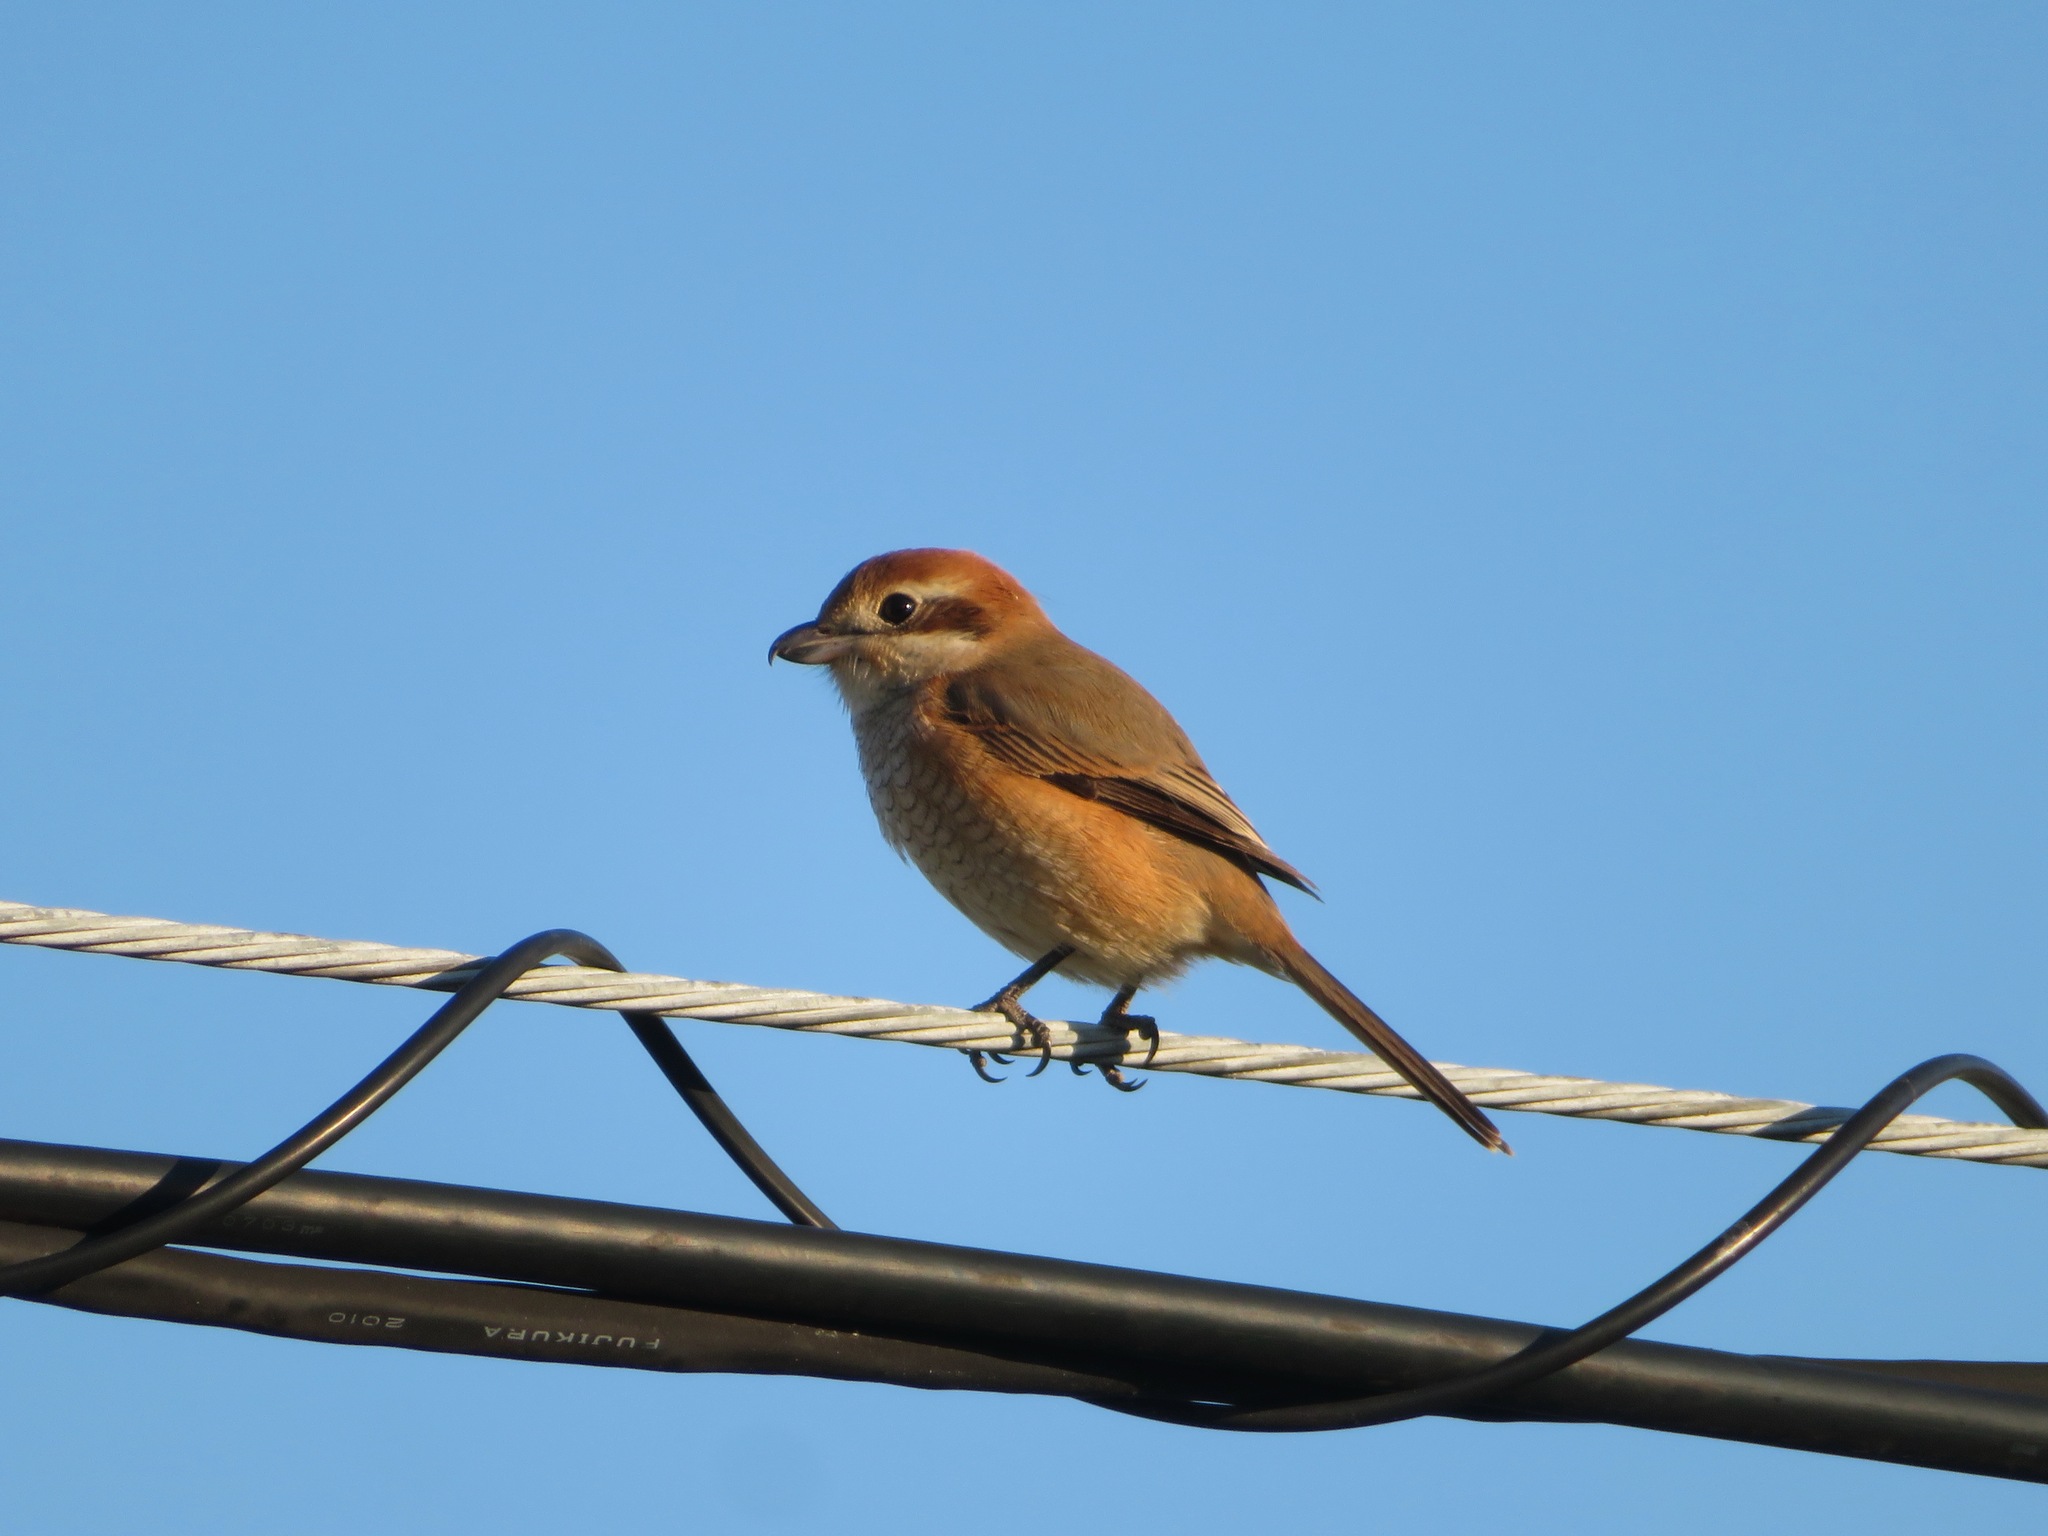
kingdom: Animalia
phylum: Chordata
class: Aves
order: Passeriformes
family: Laniidae
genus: Lanius
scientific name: Lanius bucephalus
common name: Bull-headed shrike
